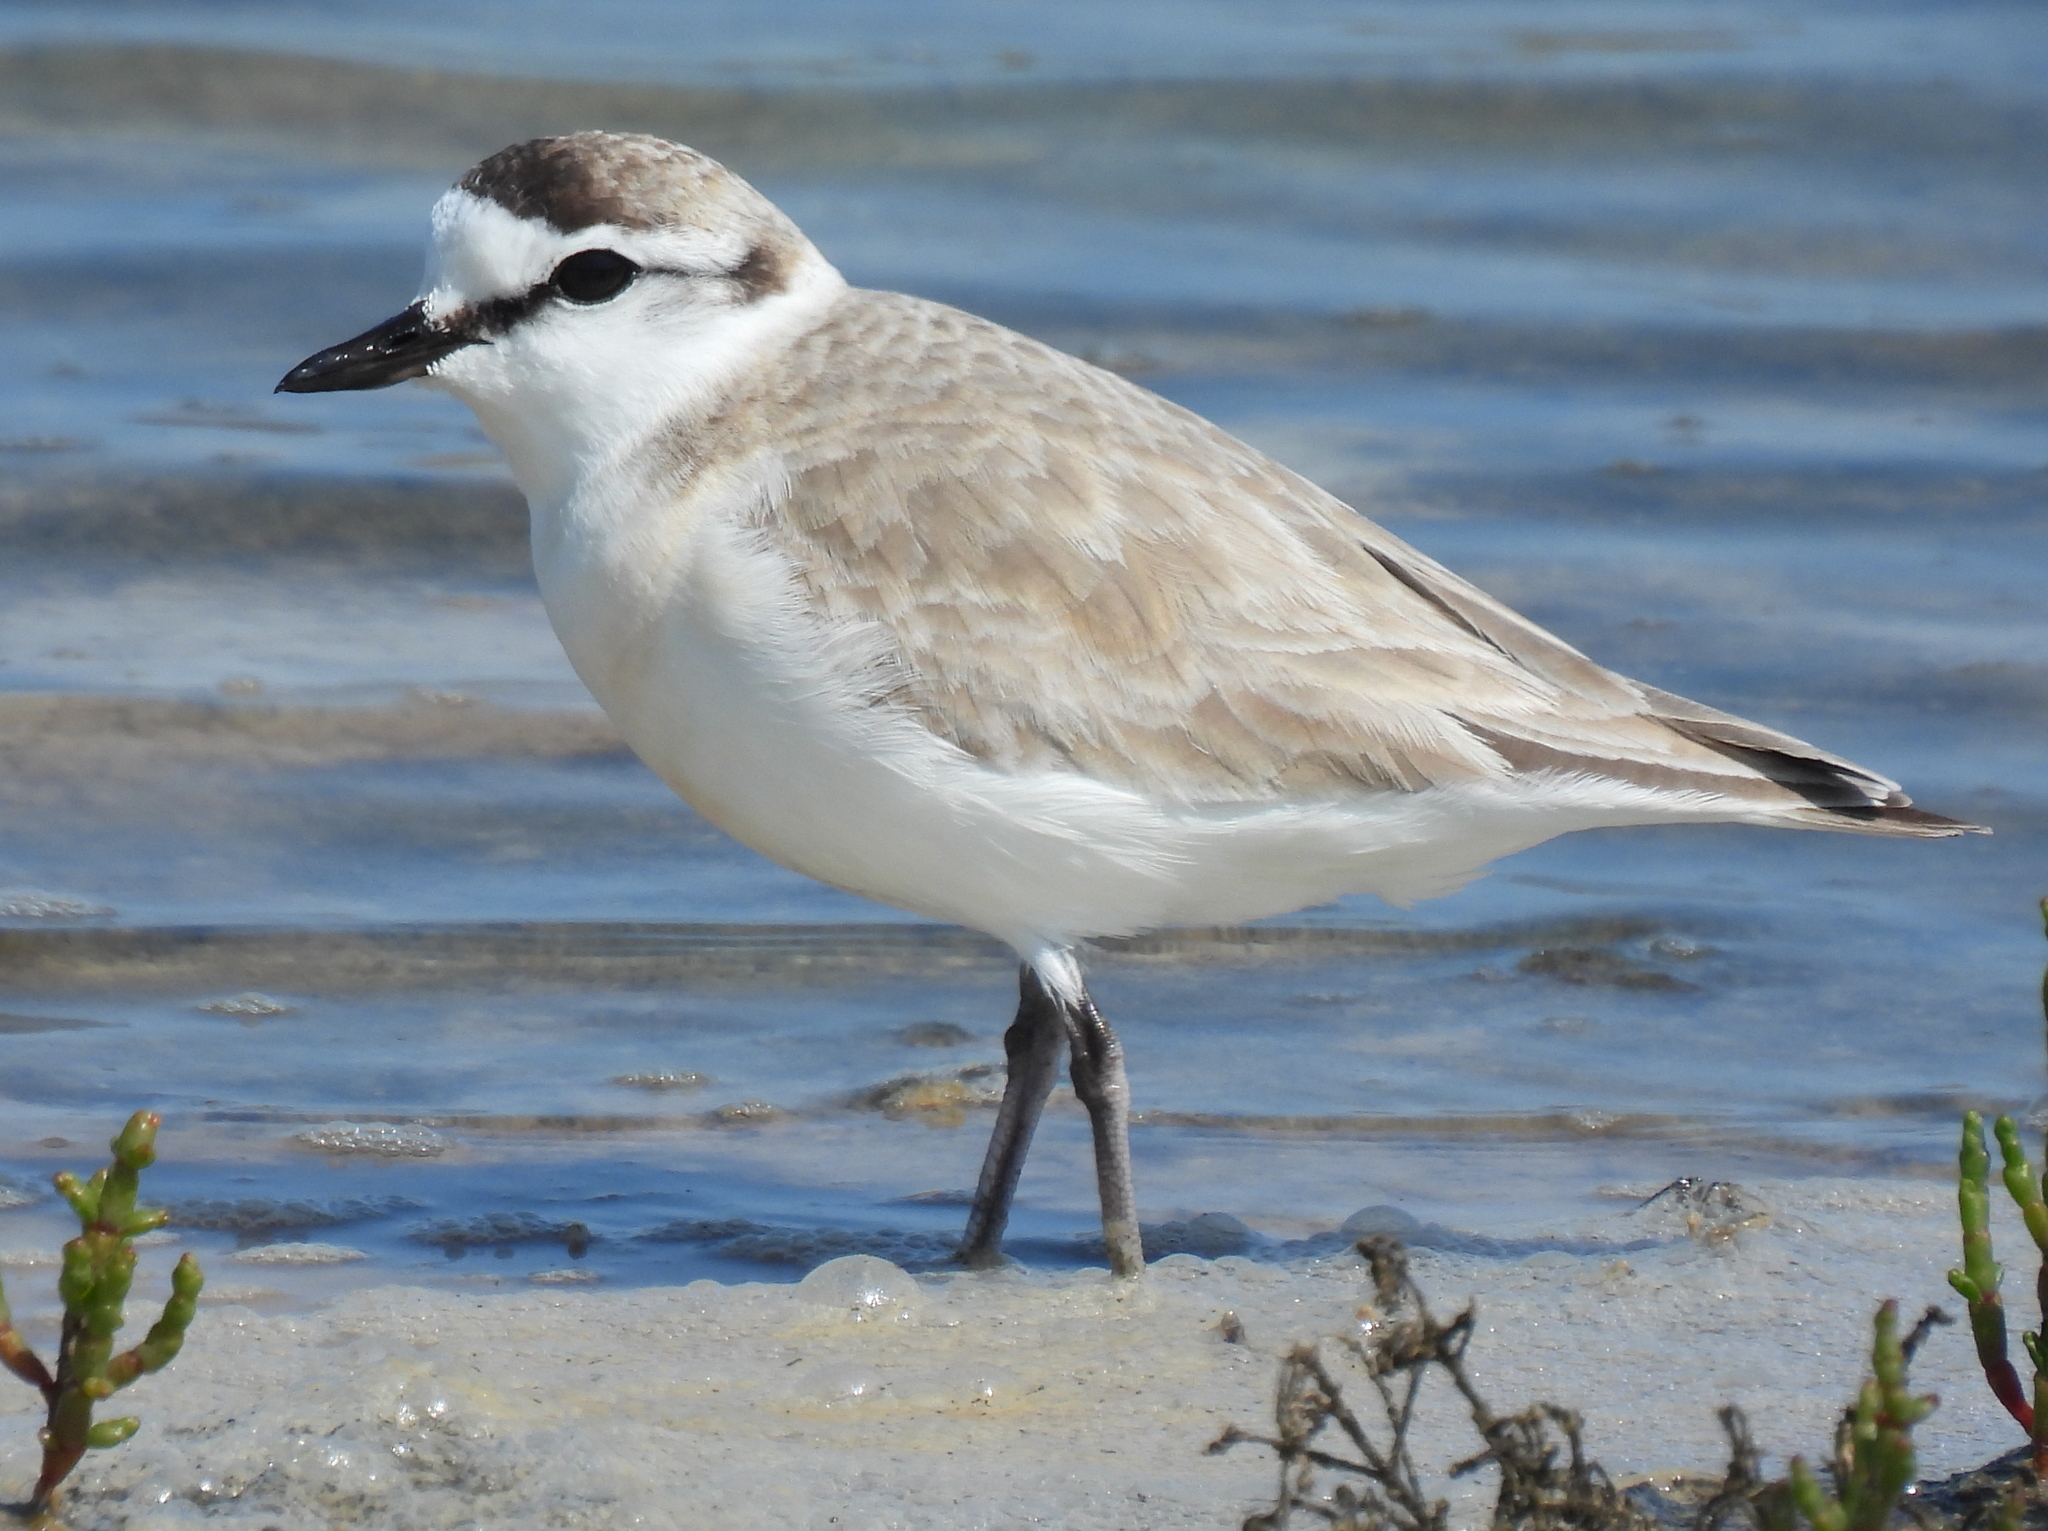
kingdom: Animalia
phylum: Chordata
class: Aves
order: Charadriiformes
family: Charadriidae
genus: Anarhynchus
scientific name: Anarhynchus
